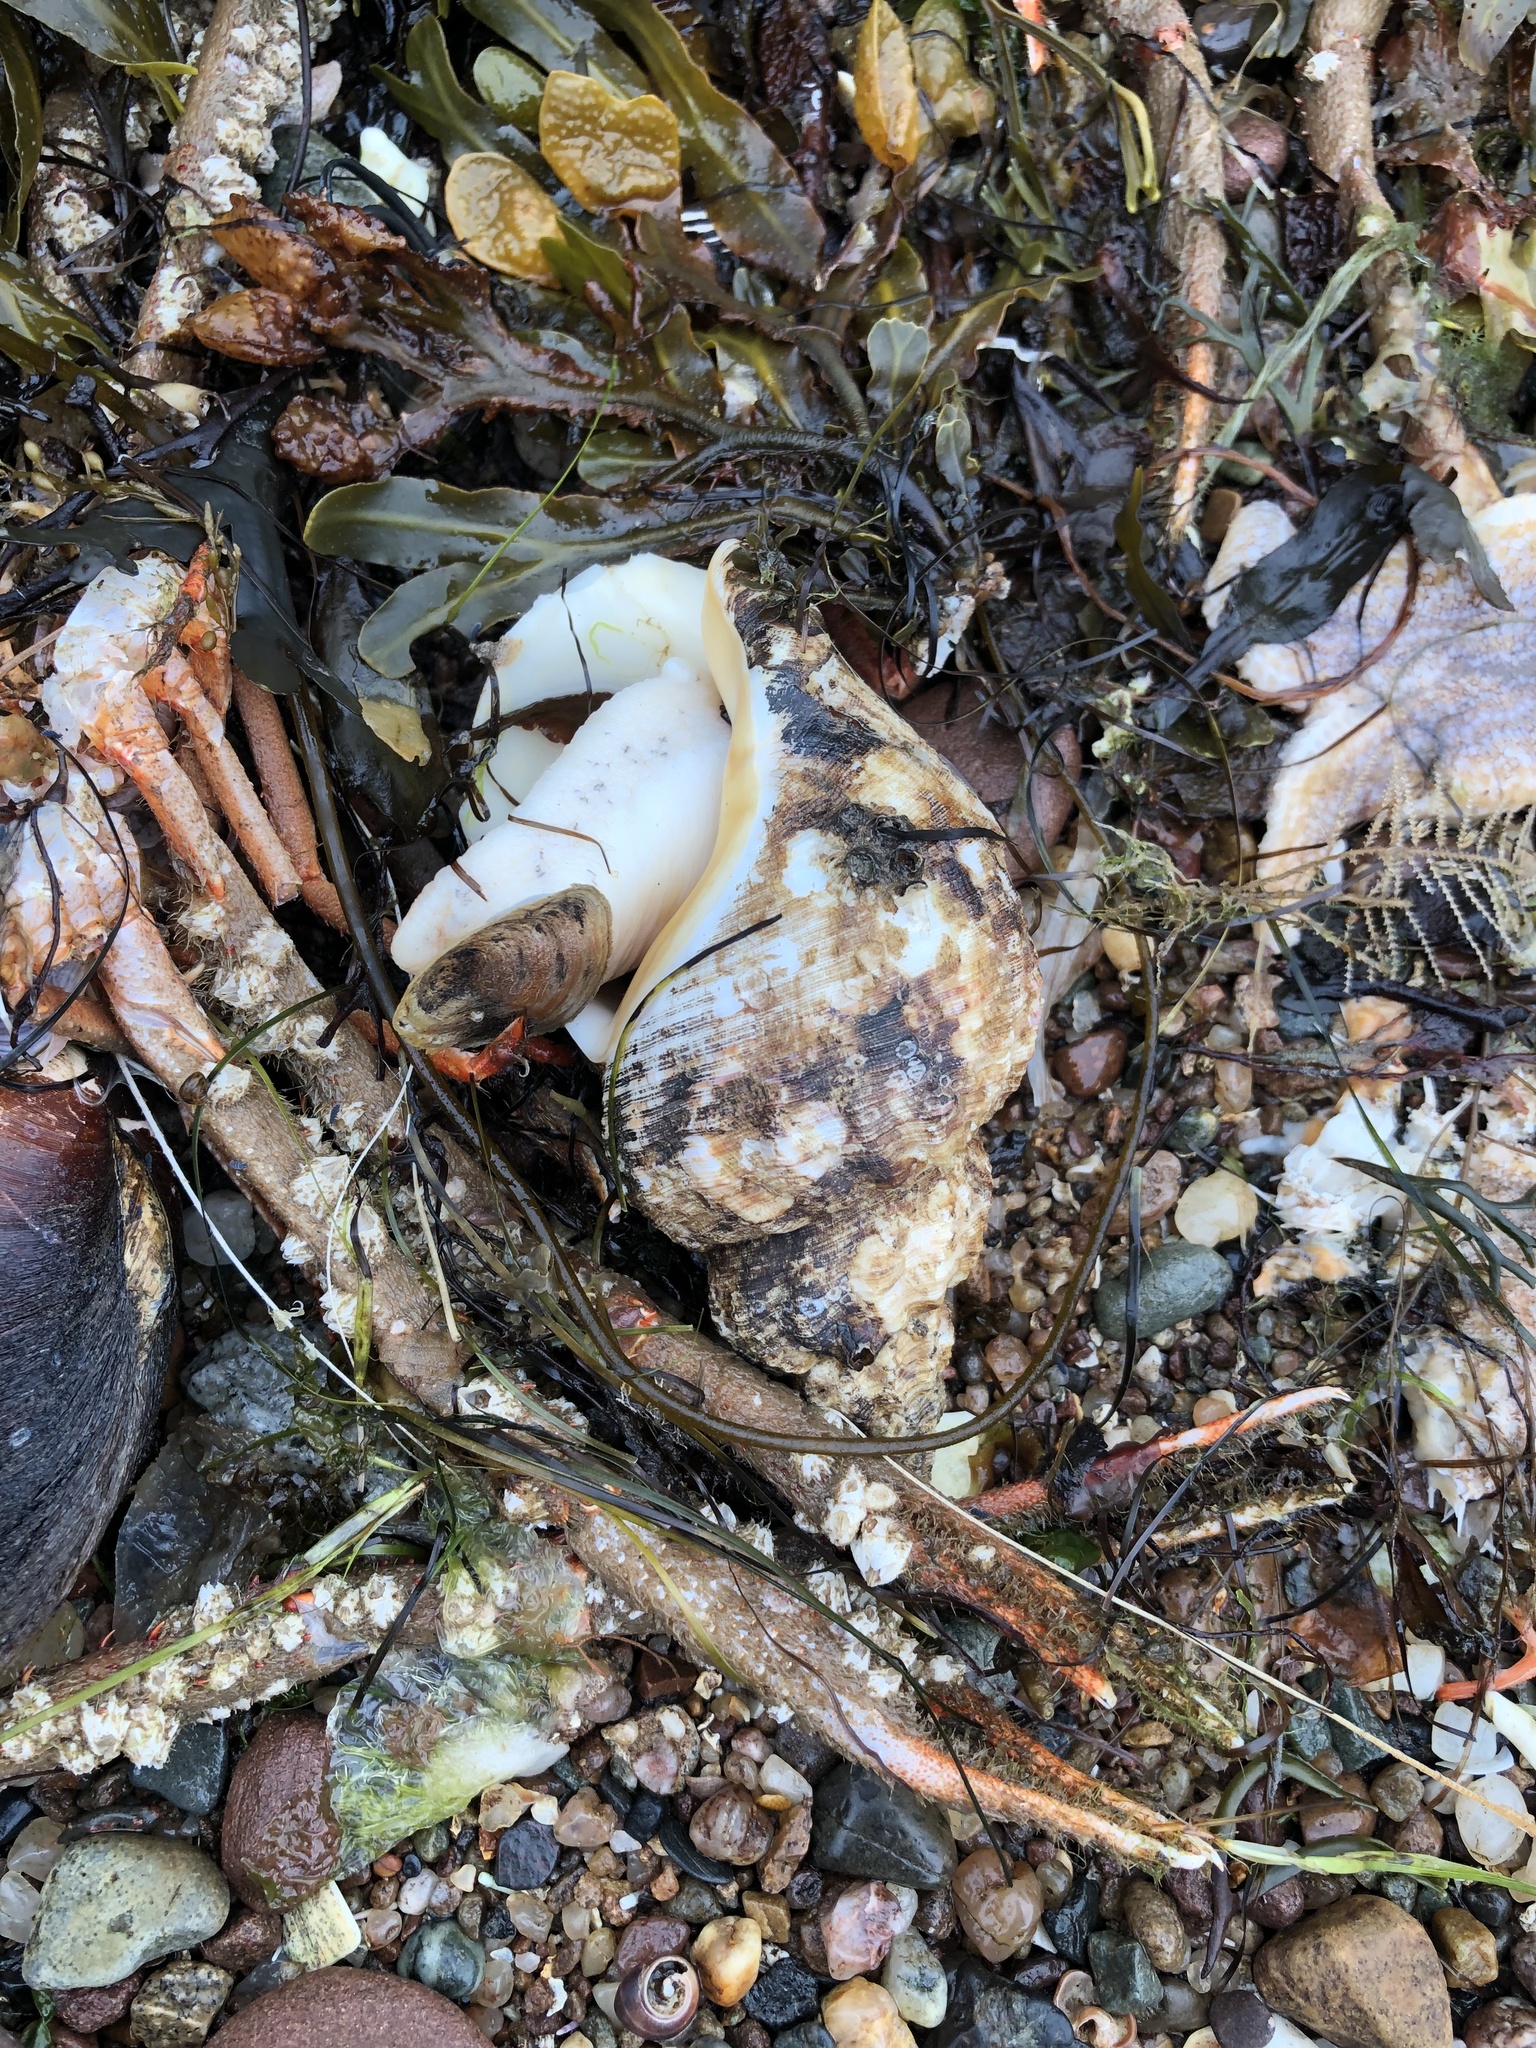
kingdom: Animalia
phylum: Mollusca
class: Gastropoda
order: Neogastropoda
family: Buccinidae
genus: Buccinum
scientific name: Buccinum undatum
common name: Common whelk
